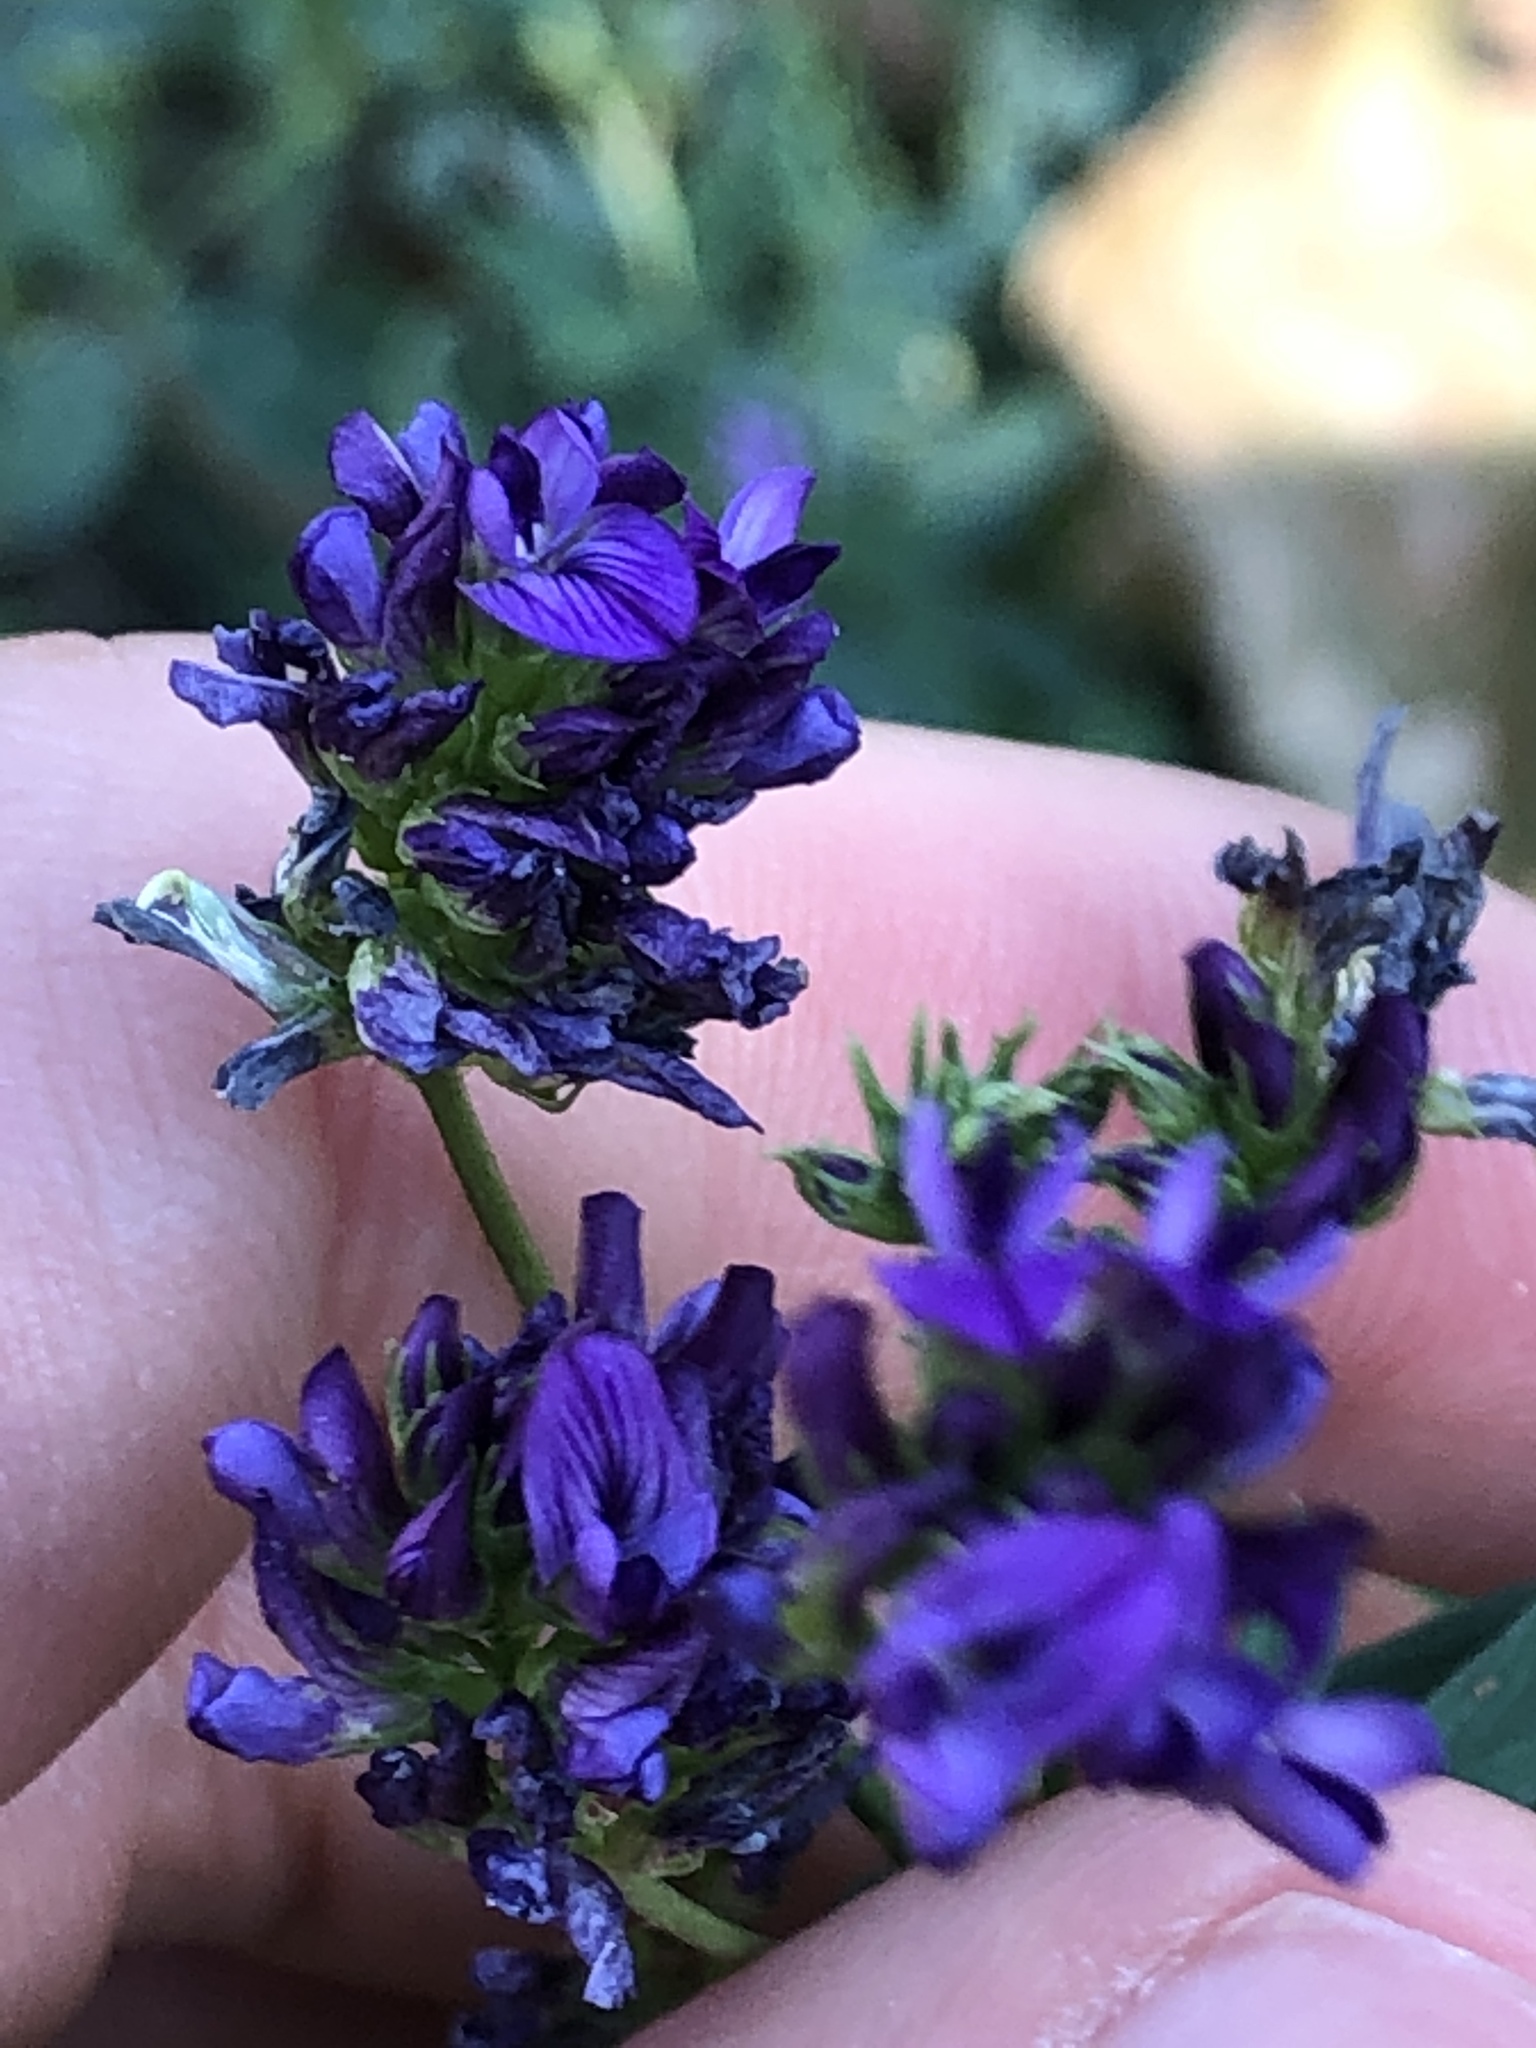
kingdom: Plantae
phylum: Tracheophyta
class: Magnoliopsida
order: Fabales
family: Fabaceae
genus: Medicago
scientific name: Medicago sativa
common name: Alfalfa
